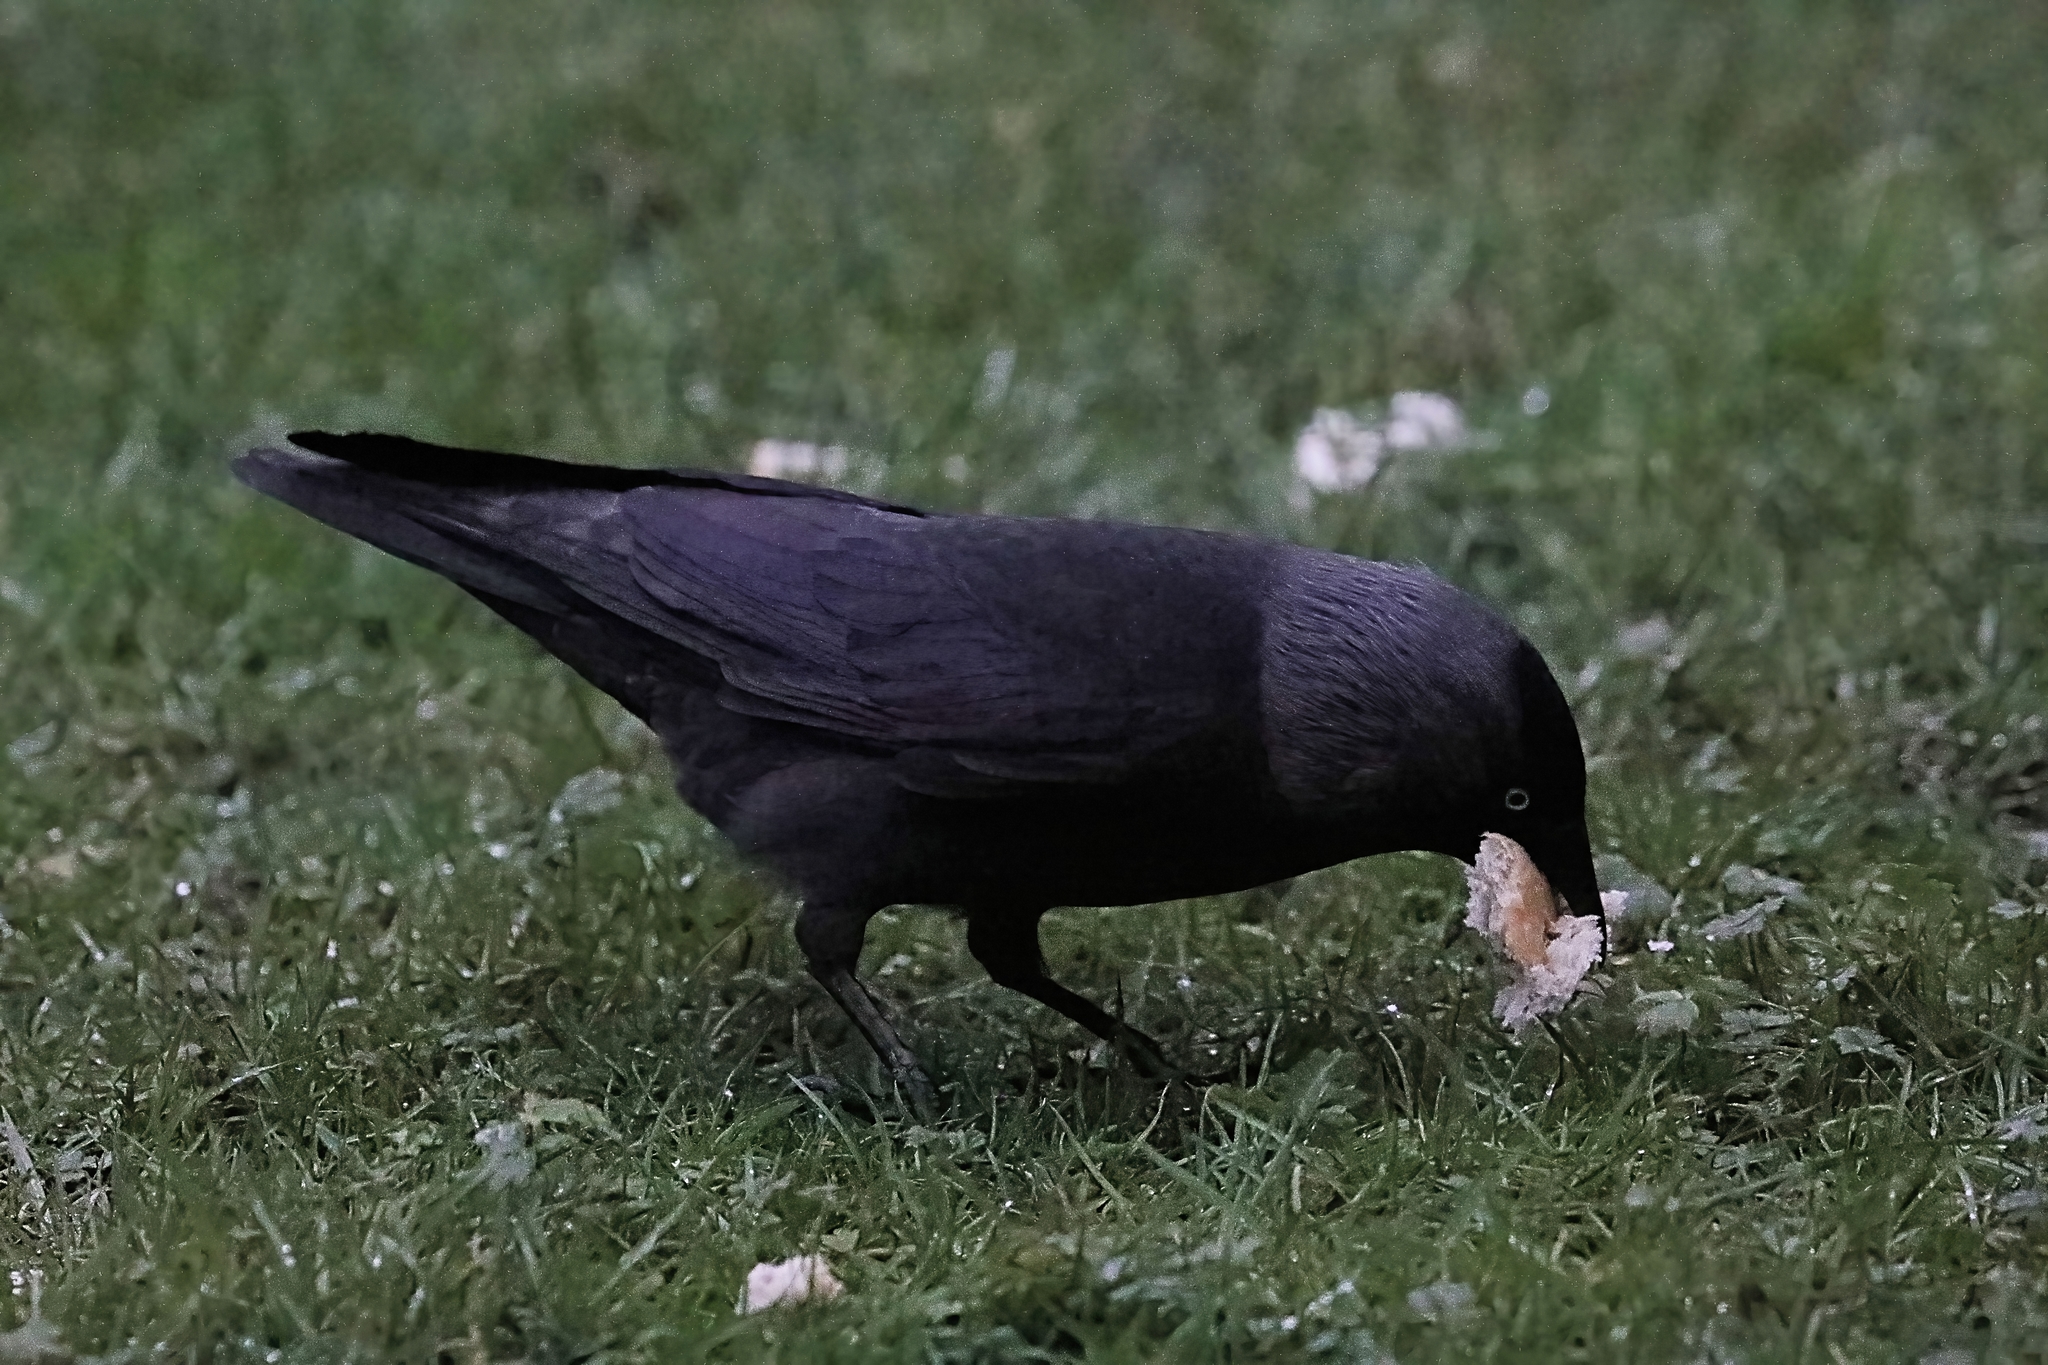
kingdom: Animalia
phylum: Chordata
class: Aves
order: Passeriformes
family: Corvidae
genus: Coloeus
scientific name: Coloeus monedula
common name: Western jackdaw
